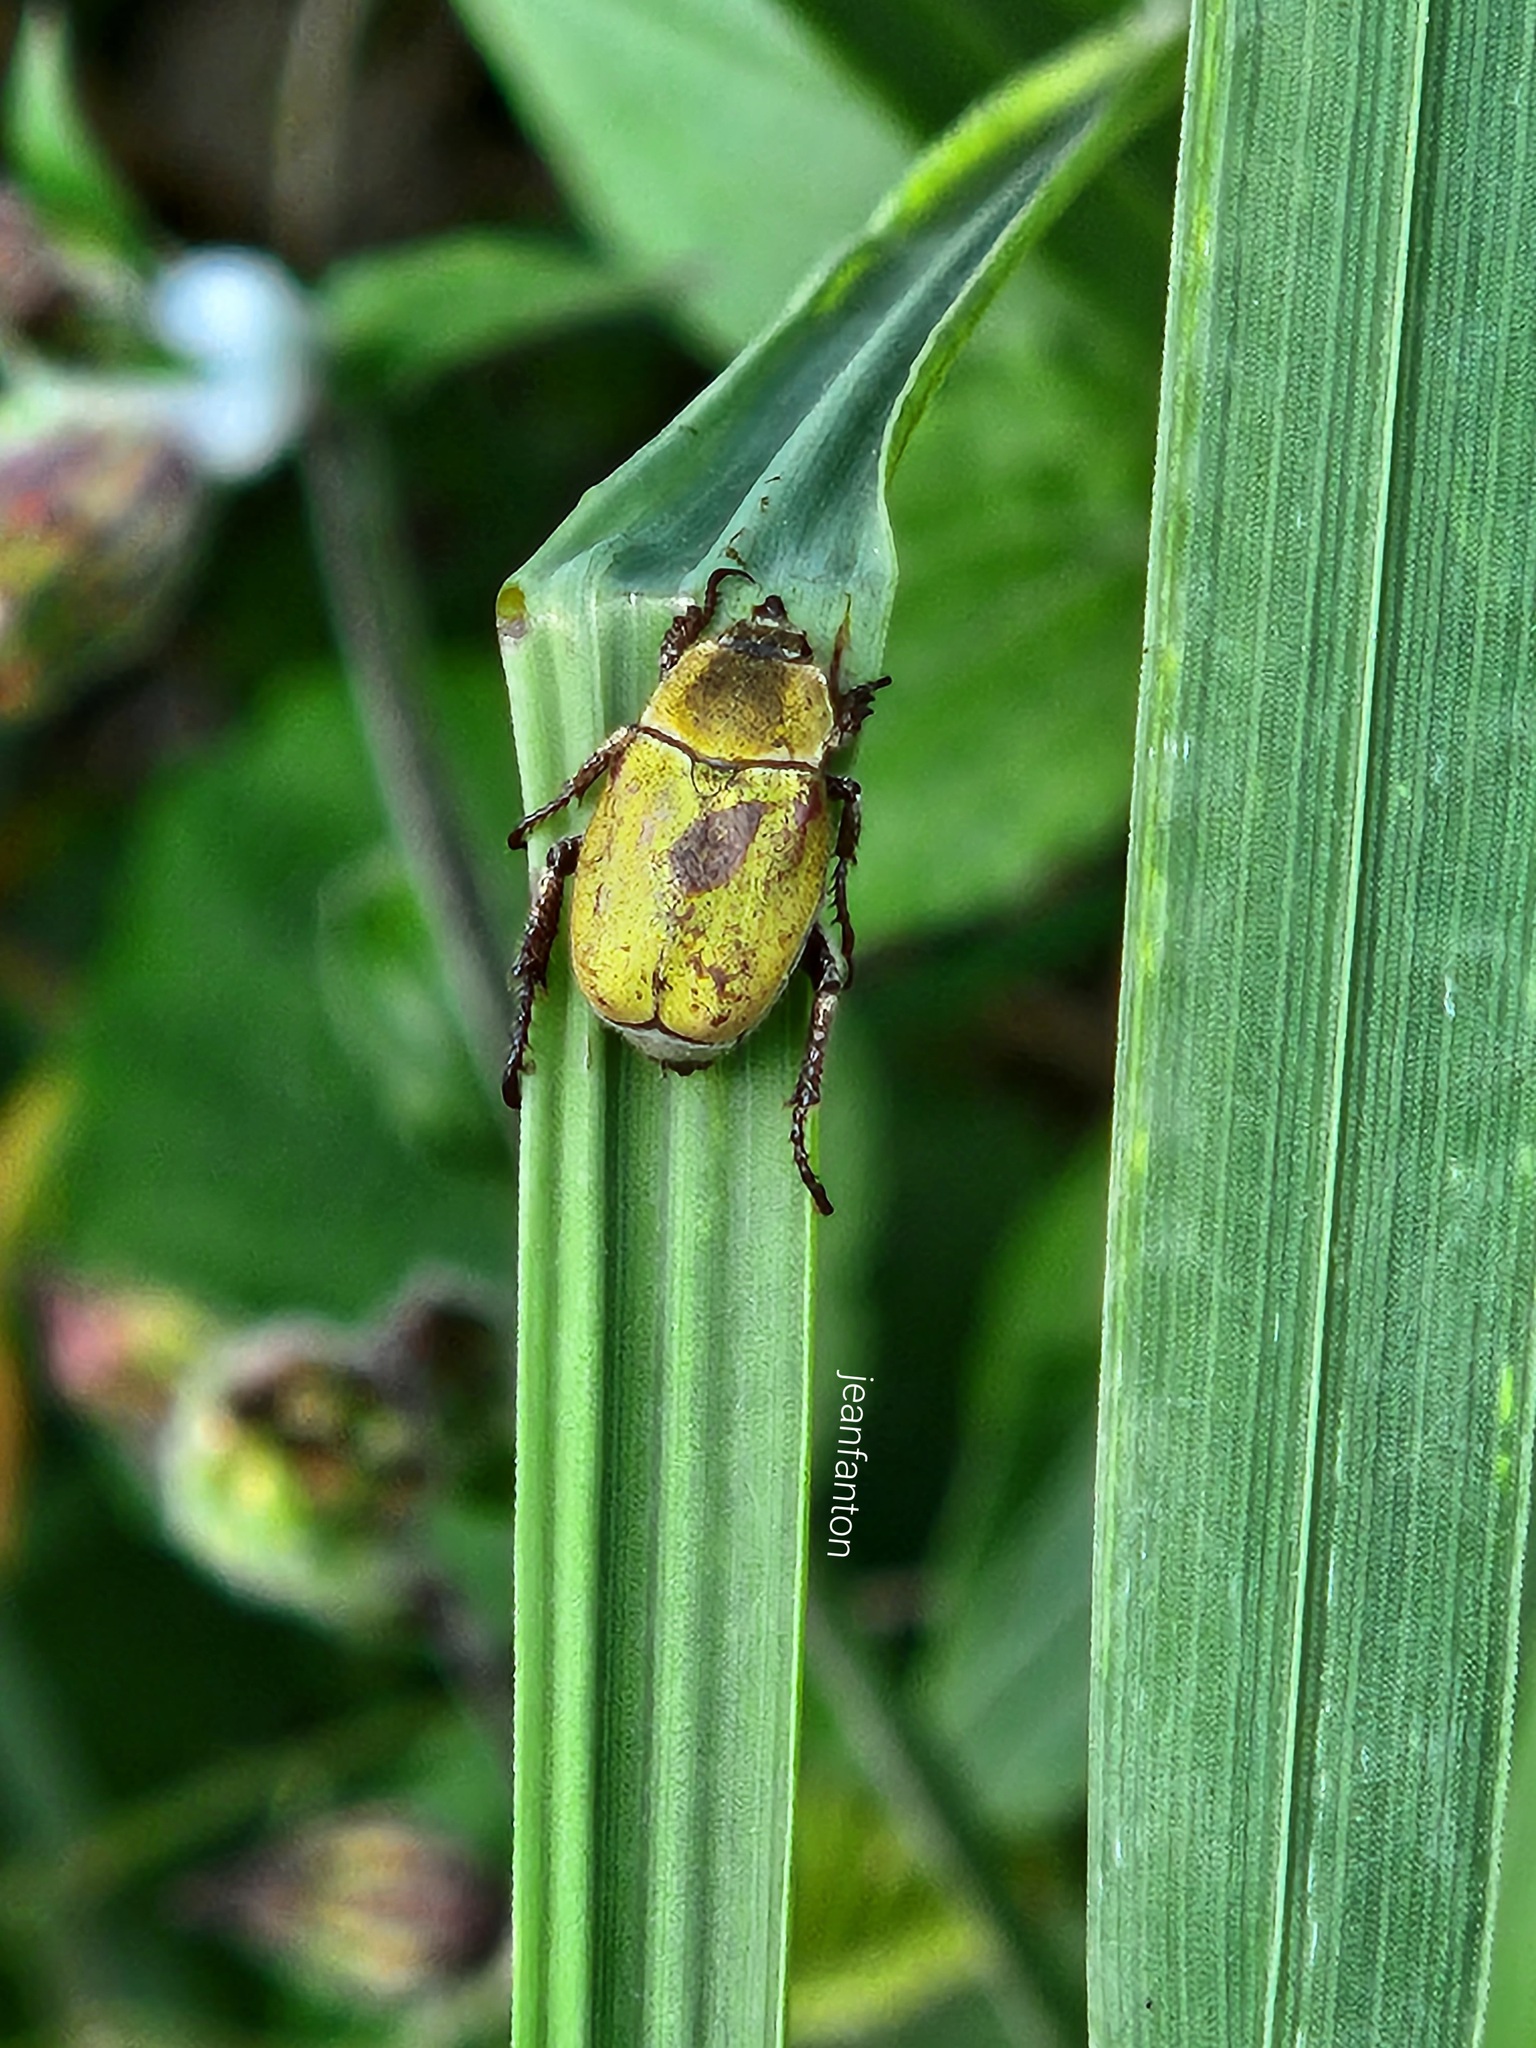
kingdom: Animalia
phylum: Arthropoda
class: Insecta
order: Coleoptera
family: Scarabaeidae
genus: Hoplia
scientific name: Hoplia argentea
